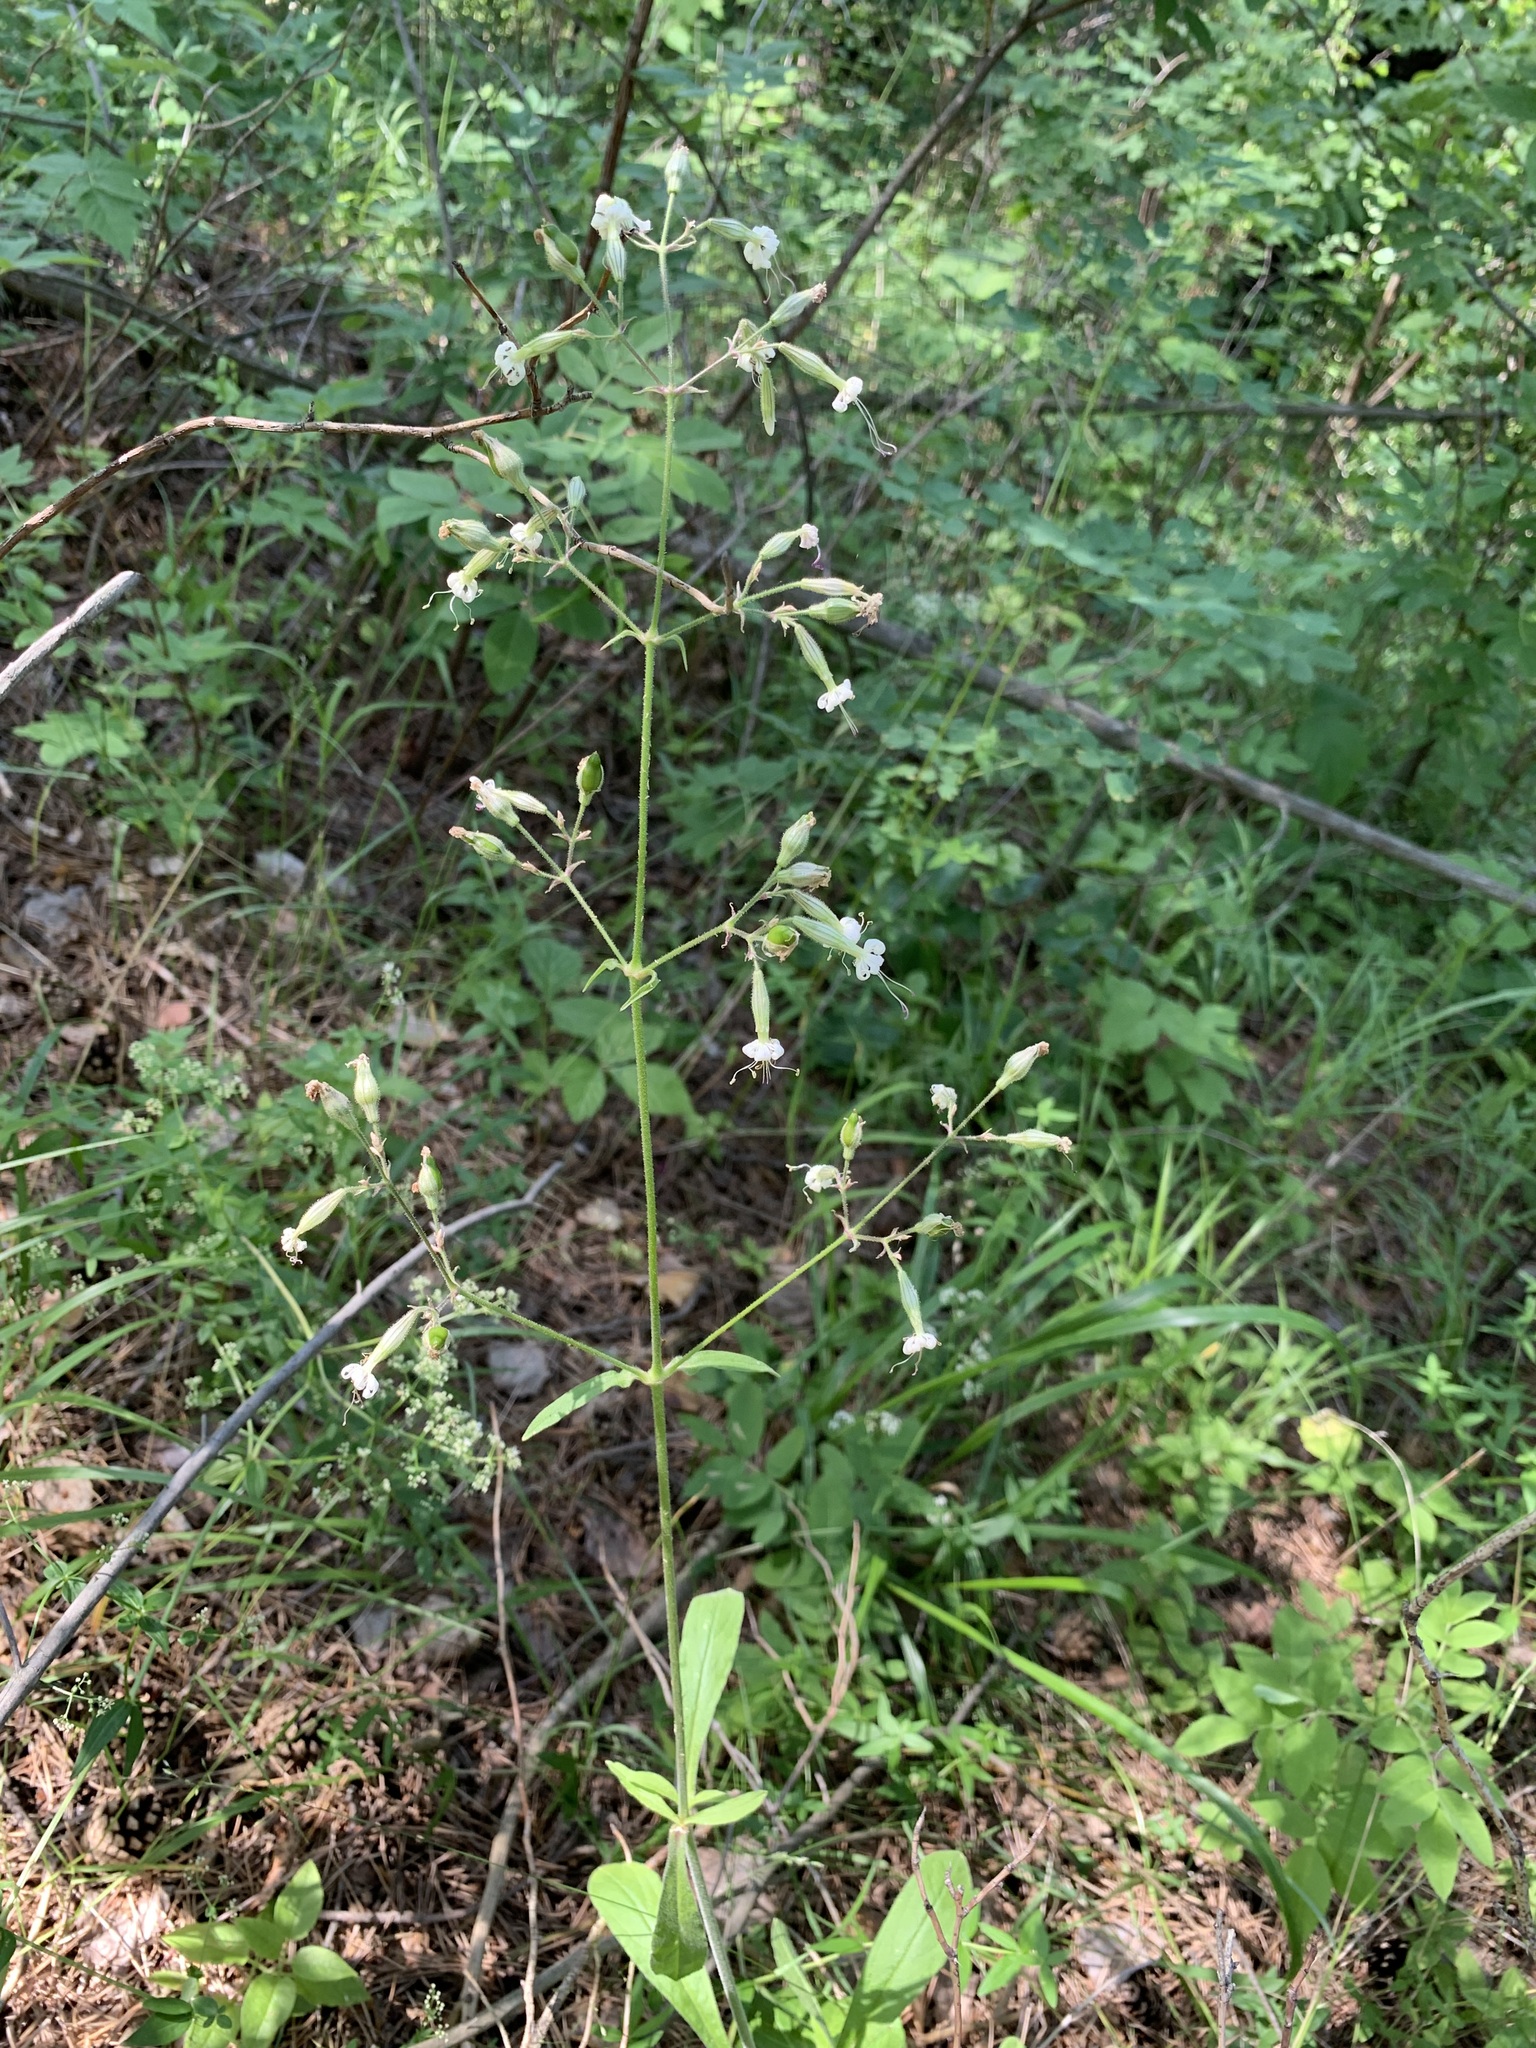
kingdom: Plantae
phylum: Tracheophyta
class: Magnoliopsida
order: Caryophyllales
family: Caryophyllaceae
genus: Silene
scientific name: Silene nutans
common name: Nottingham catchfly
